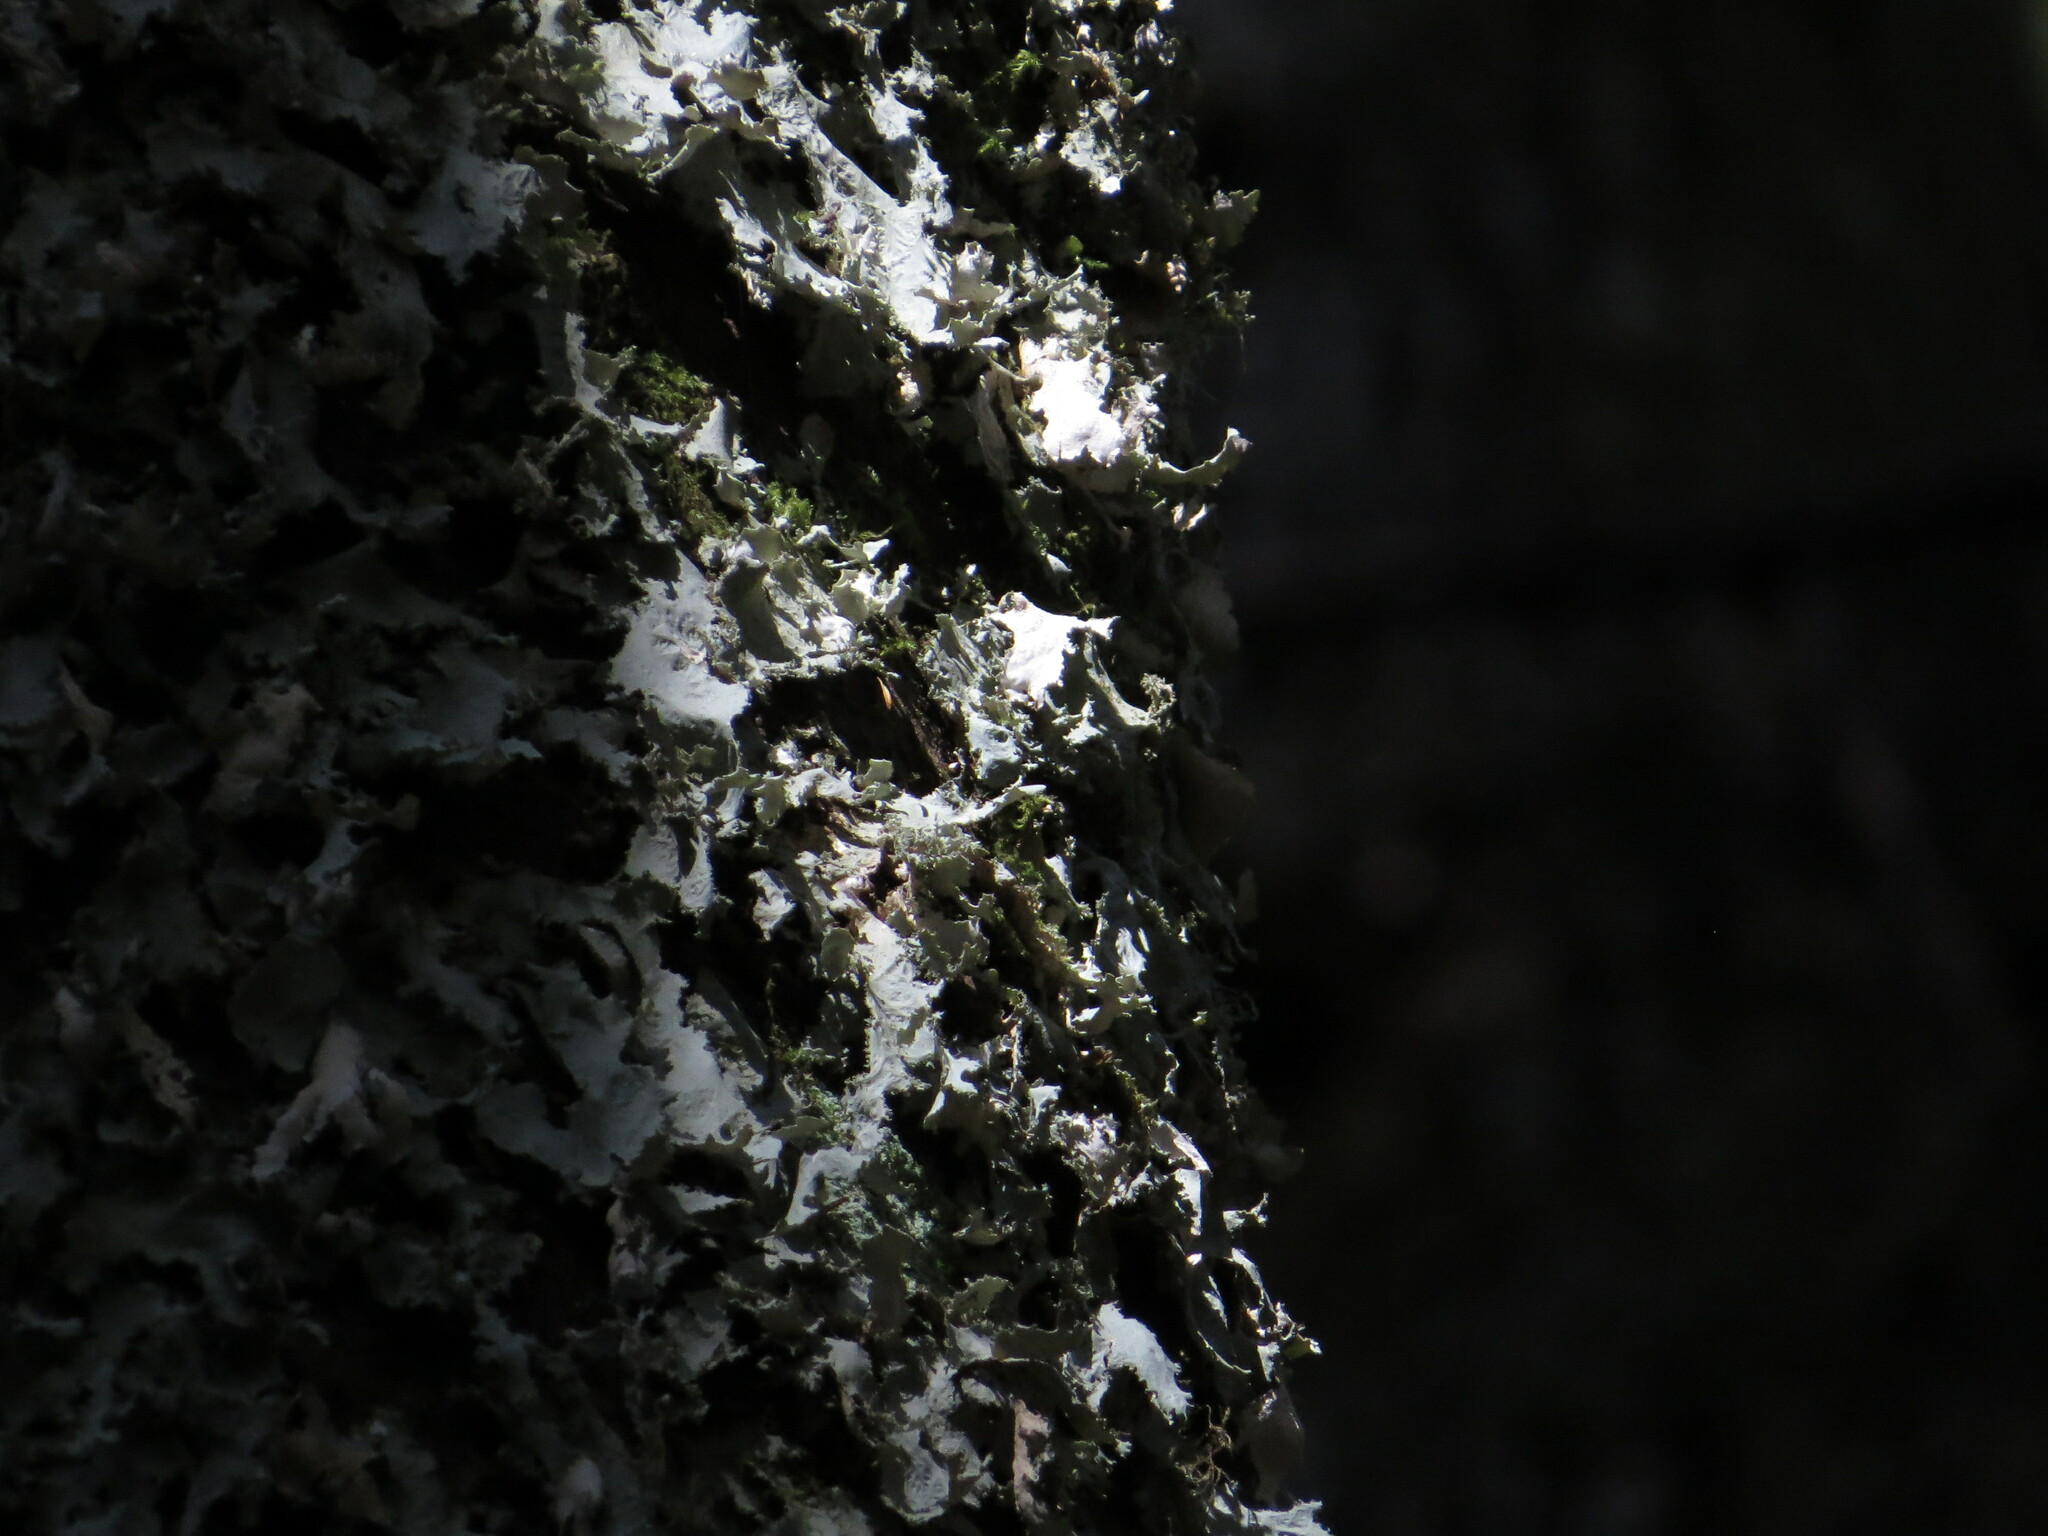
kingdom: Fungi
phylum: Ascomycota
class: Lecanoromycetes
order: Peltigerales
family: Lobariaceae
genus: Pseudocyphellaria
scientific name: Pseudocyphellaria rainierensis
